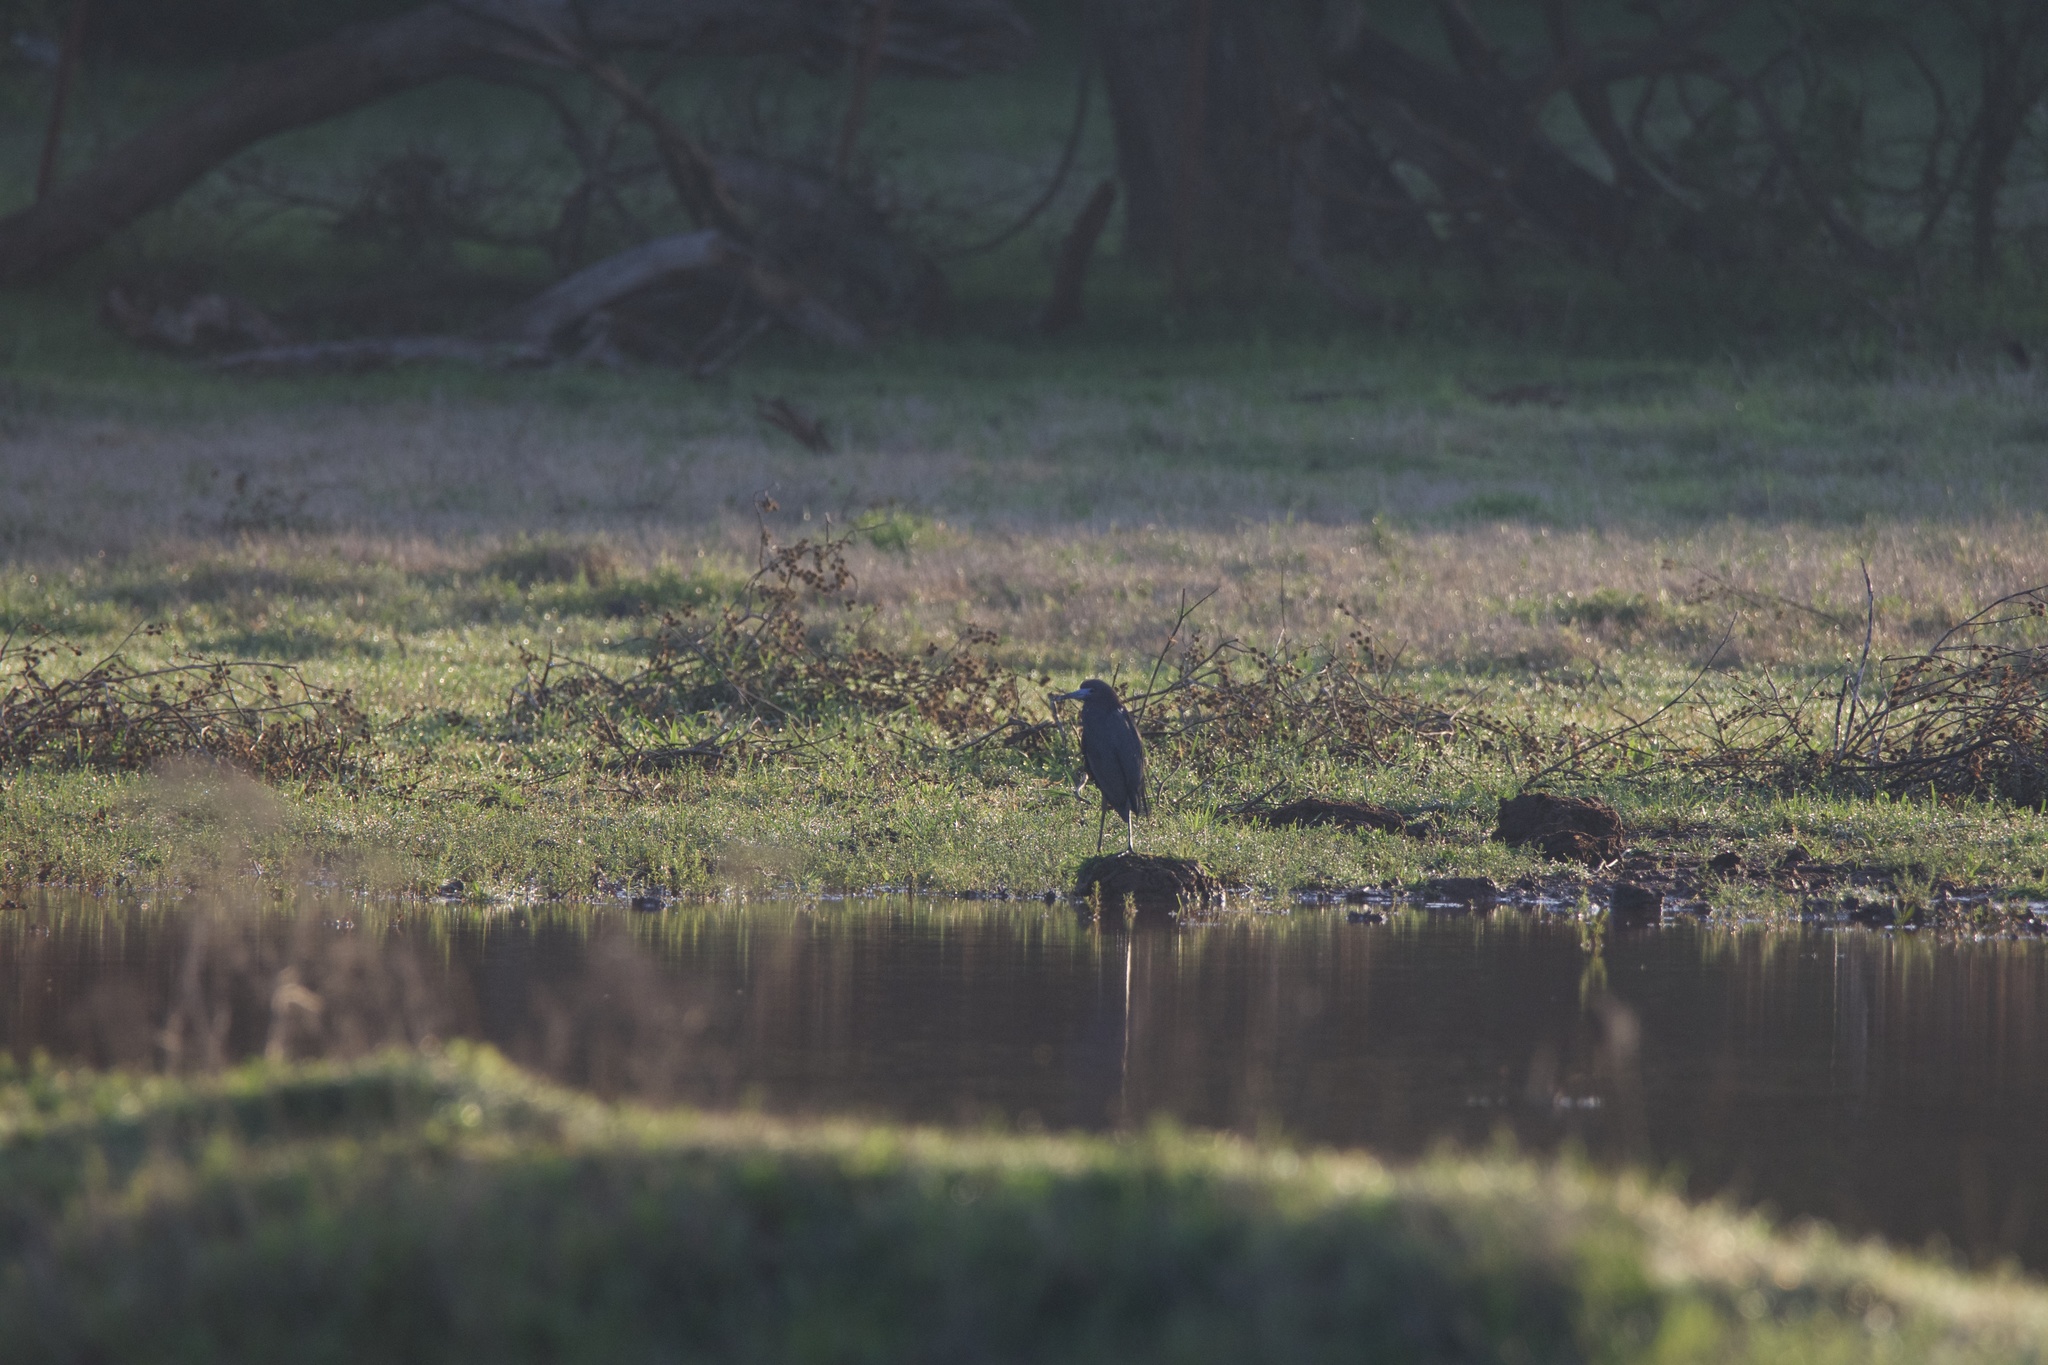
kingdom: Animalia
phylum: Chordata
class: Aves
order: Pelecaniformes
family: Ardeidae
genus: Egretta
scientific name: Egretta caerulea
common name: Little blue heron
